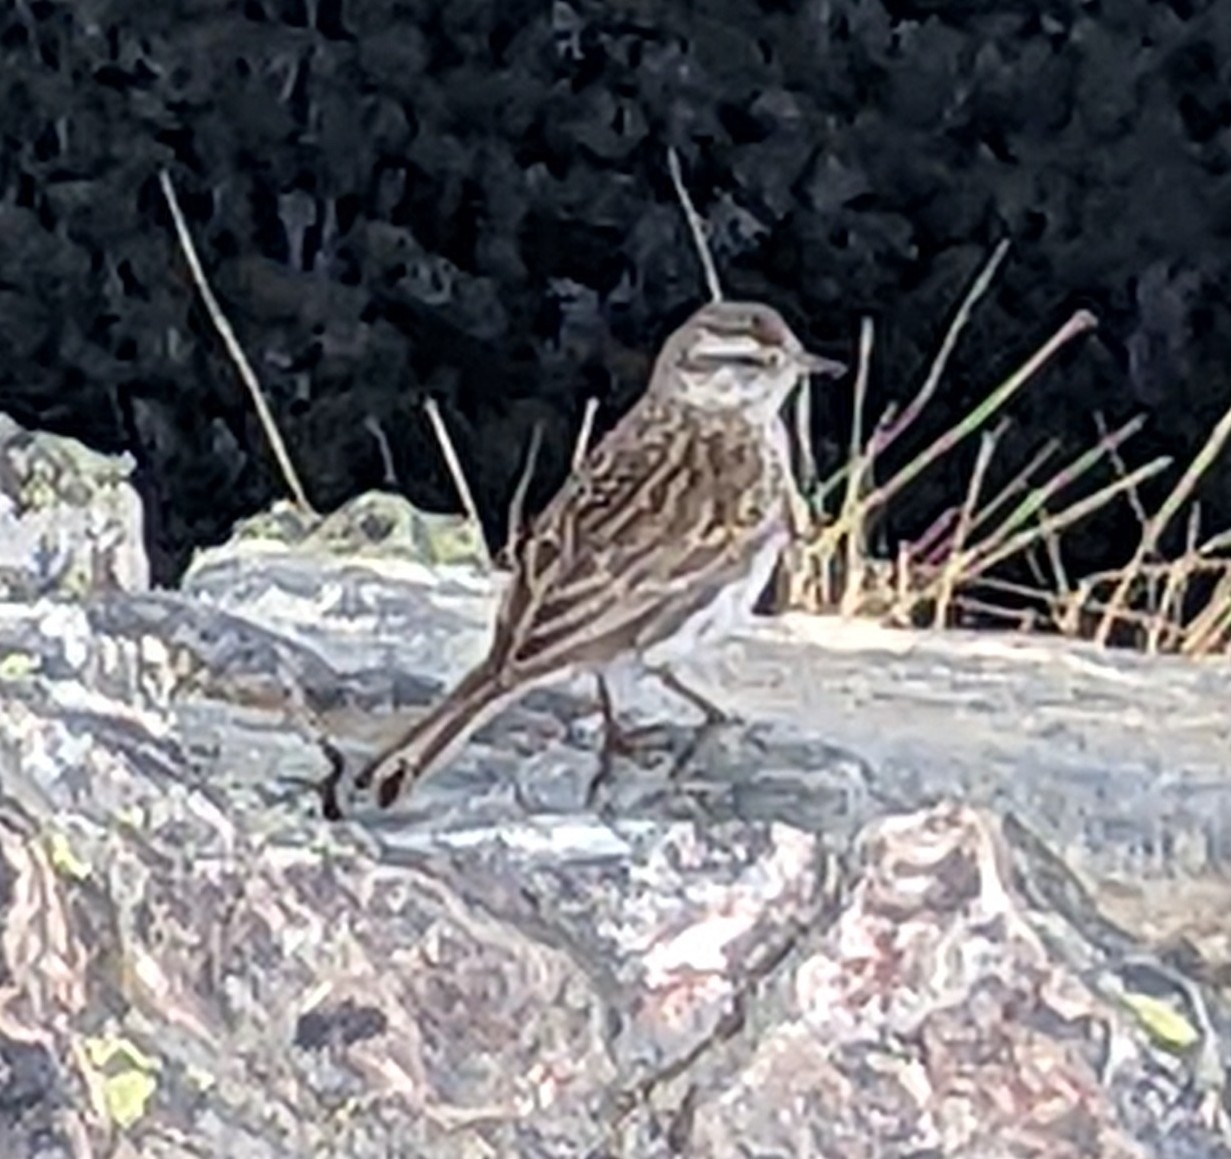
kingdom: Animalia
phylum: Chordata
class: Aves
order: Passeriformes
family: Motacillidae
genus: Anthus
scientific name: Anthus novaeseelandiae
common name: New zealand pipit
